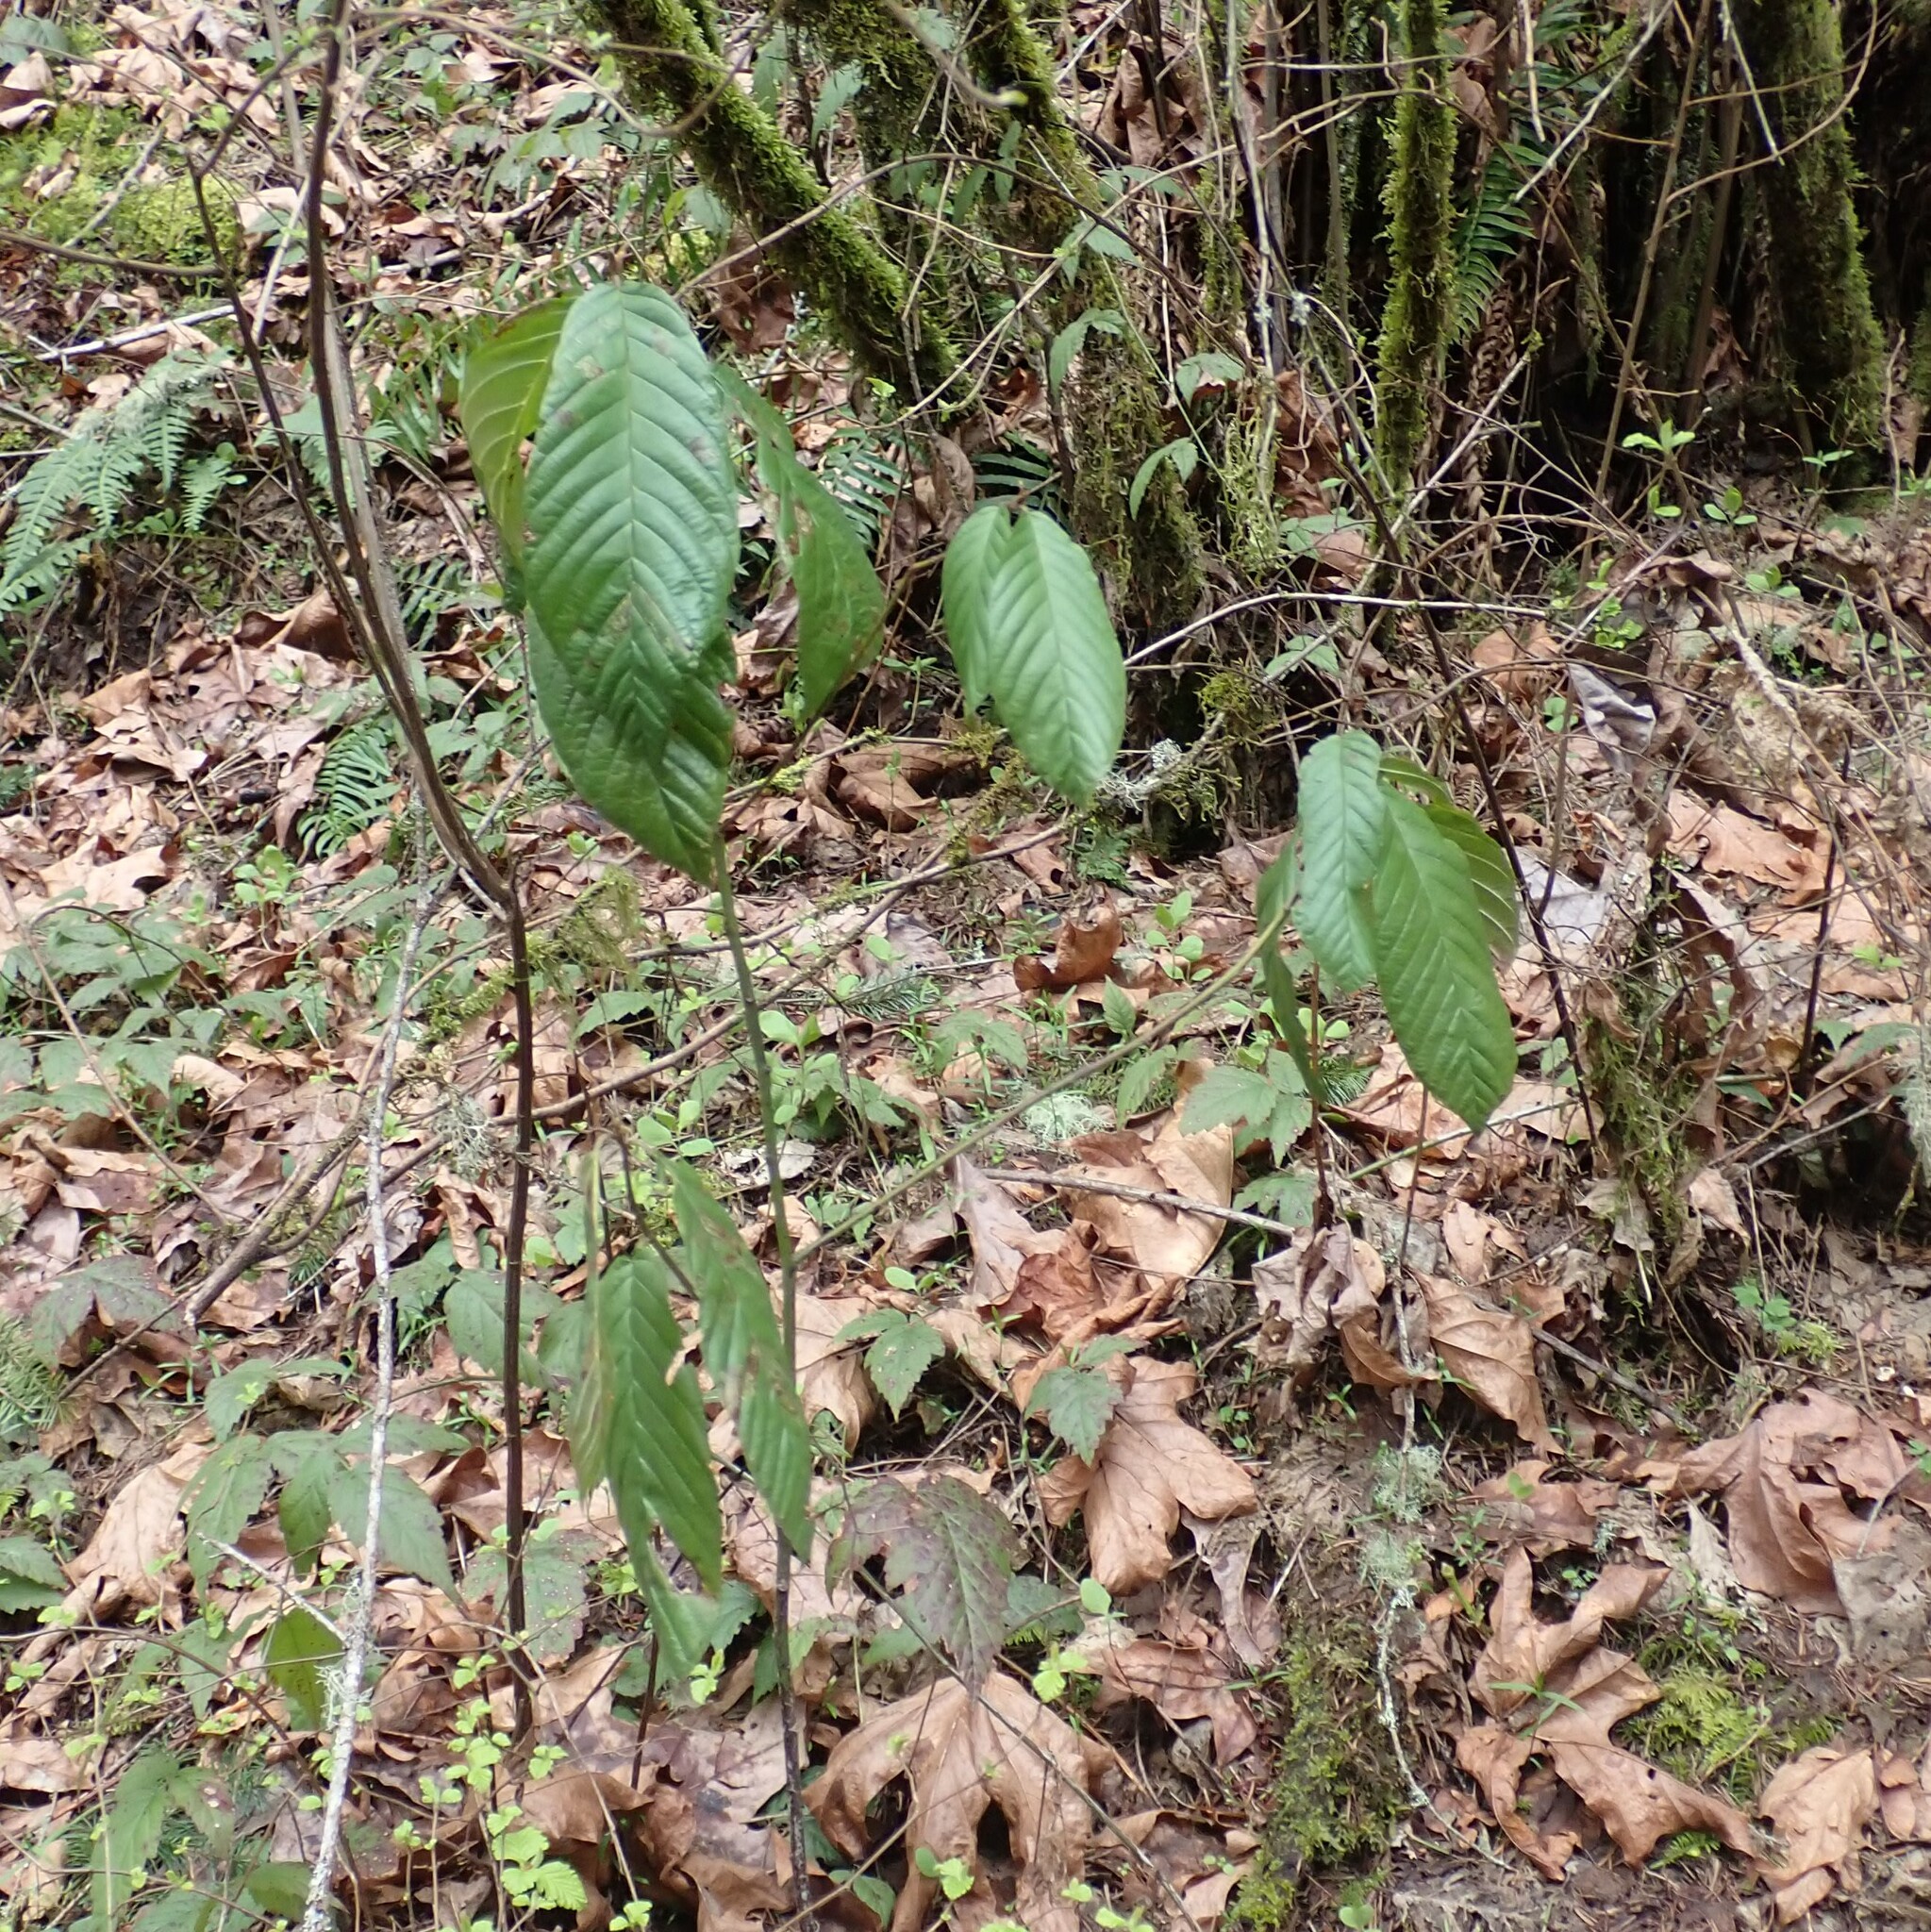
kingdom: Plantae
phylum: Tracheophyta
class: Magnoliopsida
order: Rosales
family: Rhamnaceae
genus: Frangula
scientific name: Frangula purshiana
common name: Cascara buckthorn
